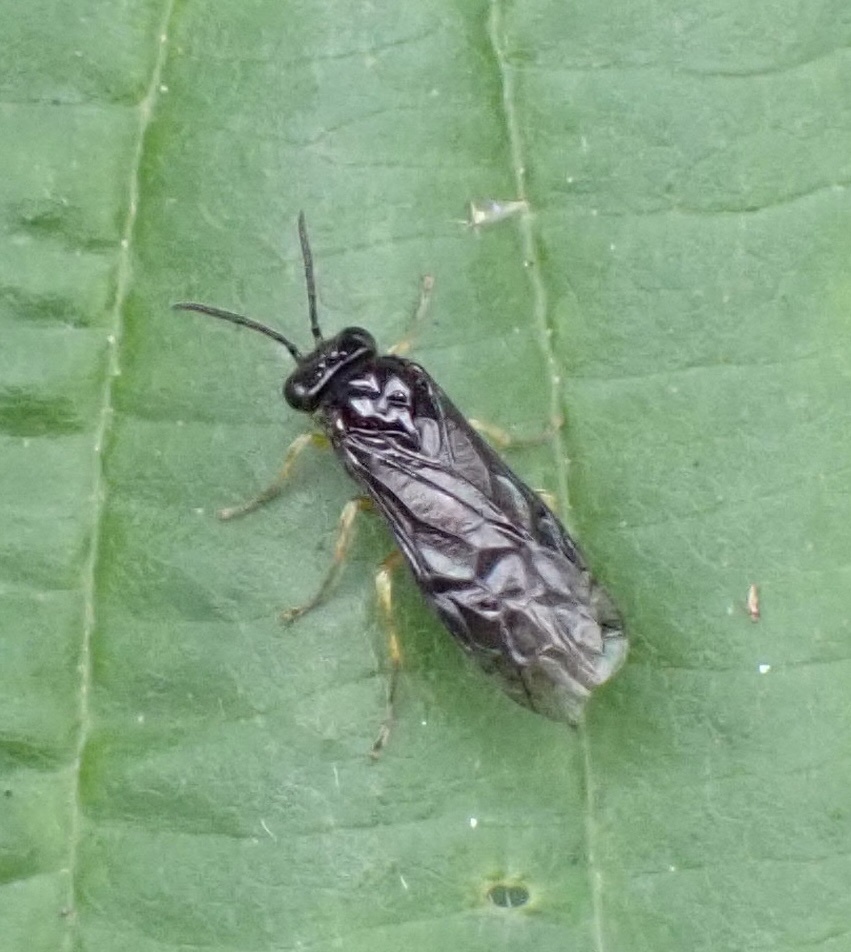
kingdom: Animalia
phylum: Arthropoda
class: Insecta
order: Hymenoptera
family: Tenthredinidae
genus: Nesoselandria
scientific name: Nesoselandria morio
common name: Tenthredid wasp
